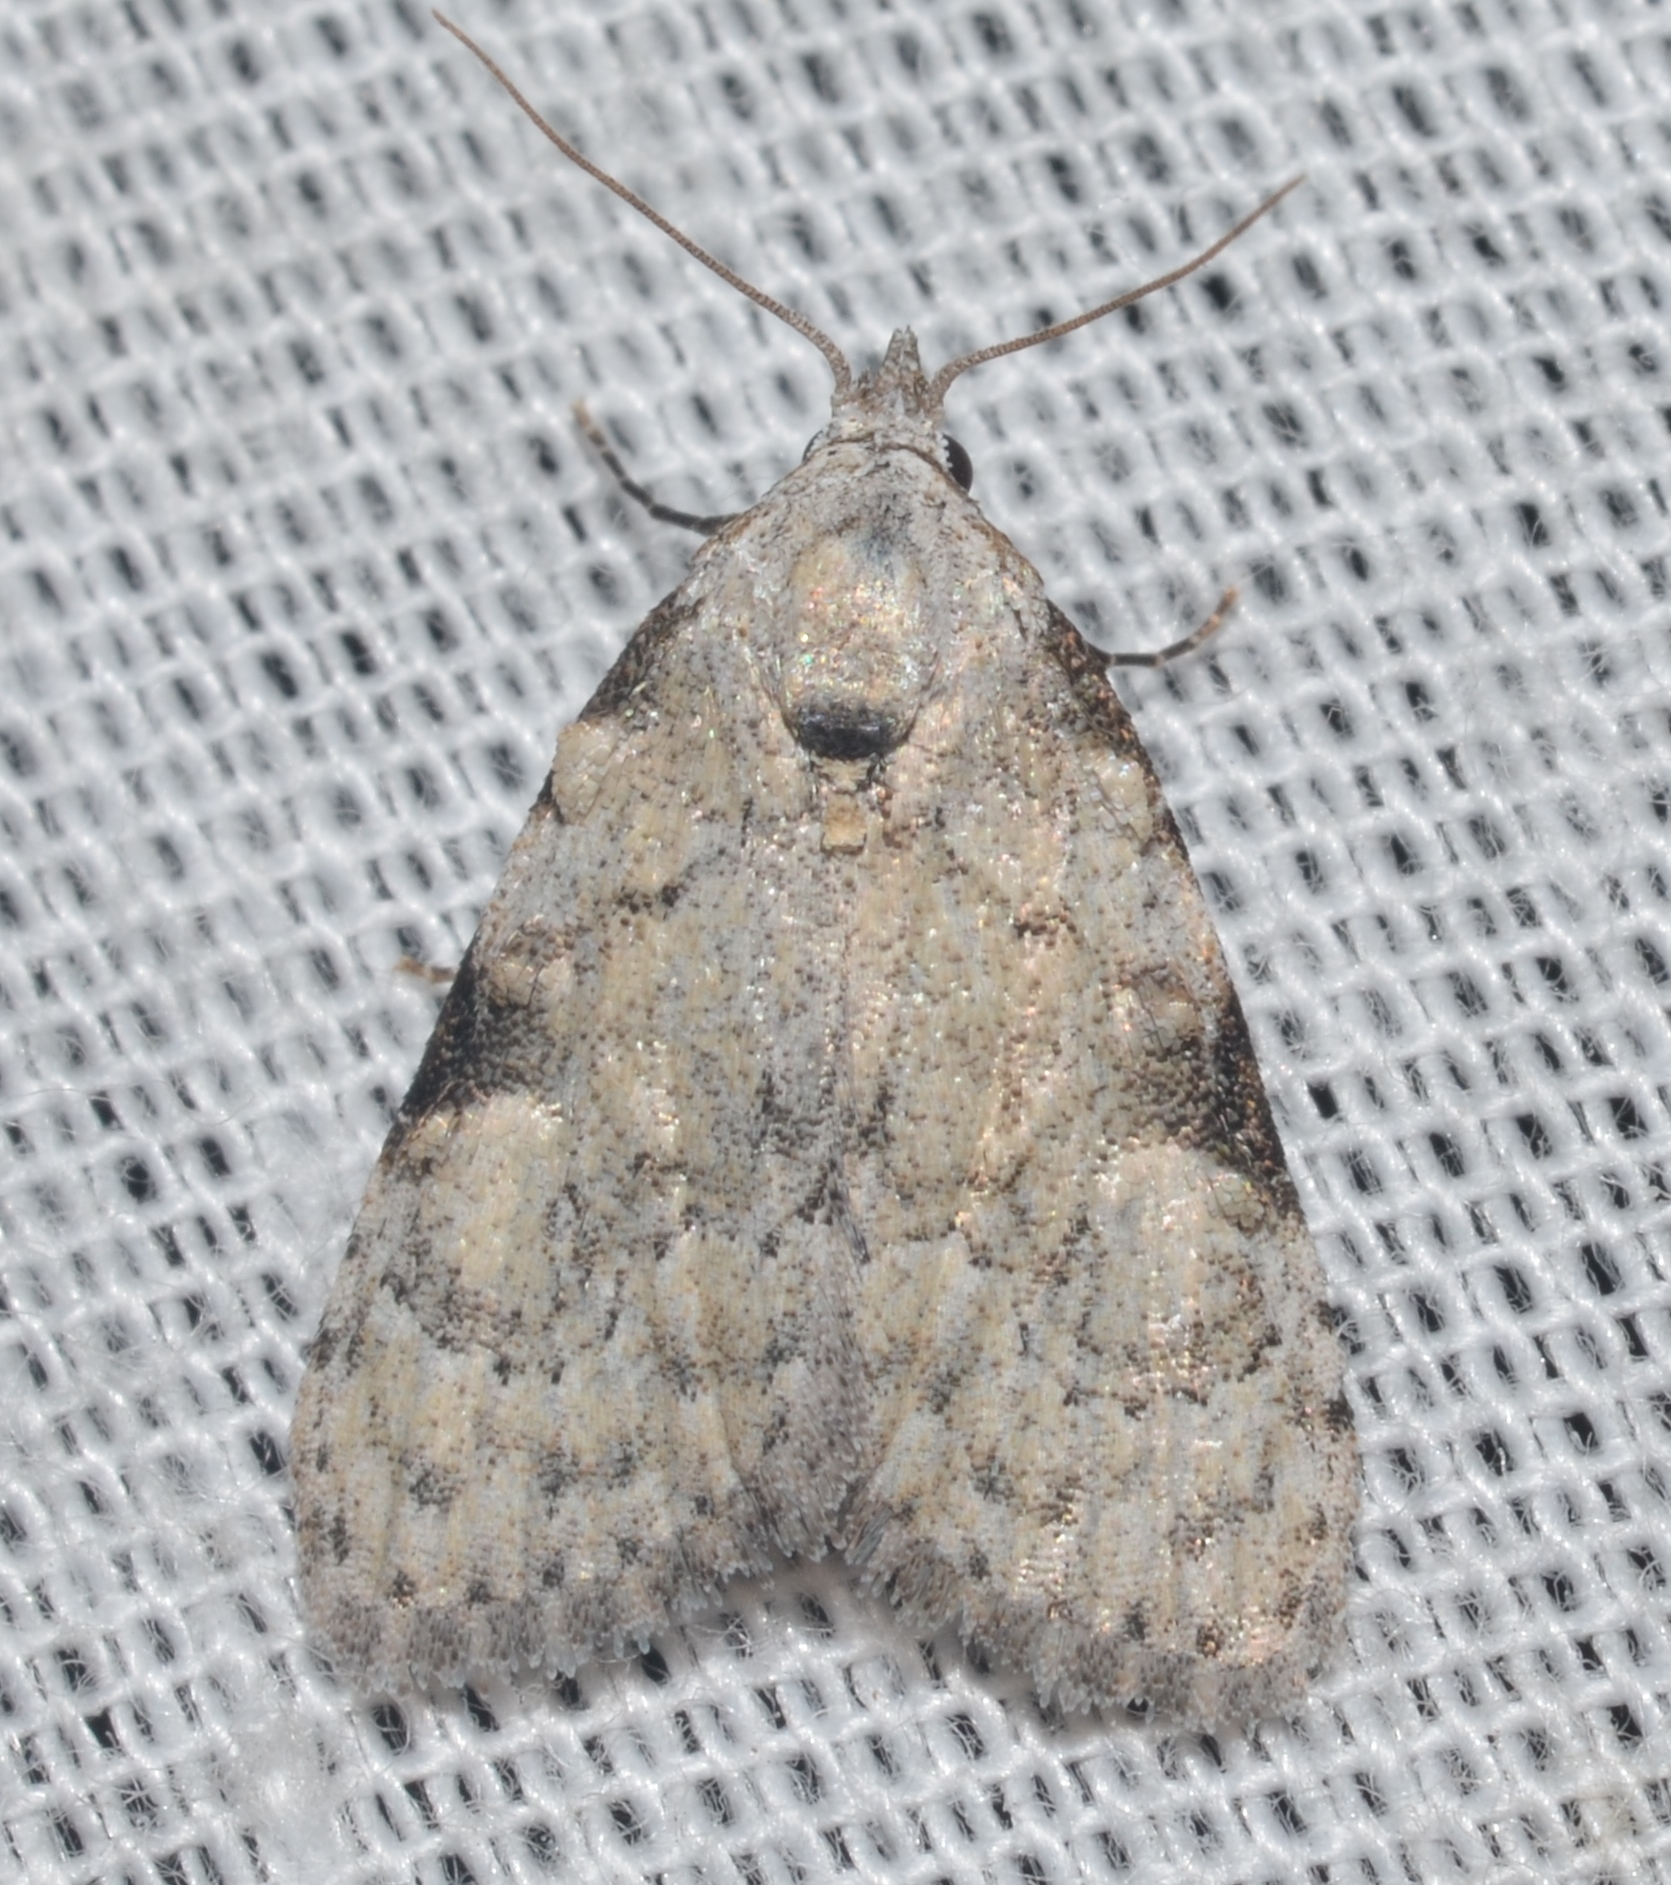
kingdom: Animalia
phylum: Arthropoda
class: Insecta
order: Lepidoptera
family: Nolidae
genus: Meganola
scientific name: Meganola minuscula
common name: Confused meganola moth
